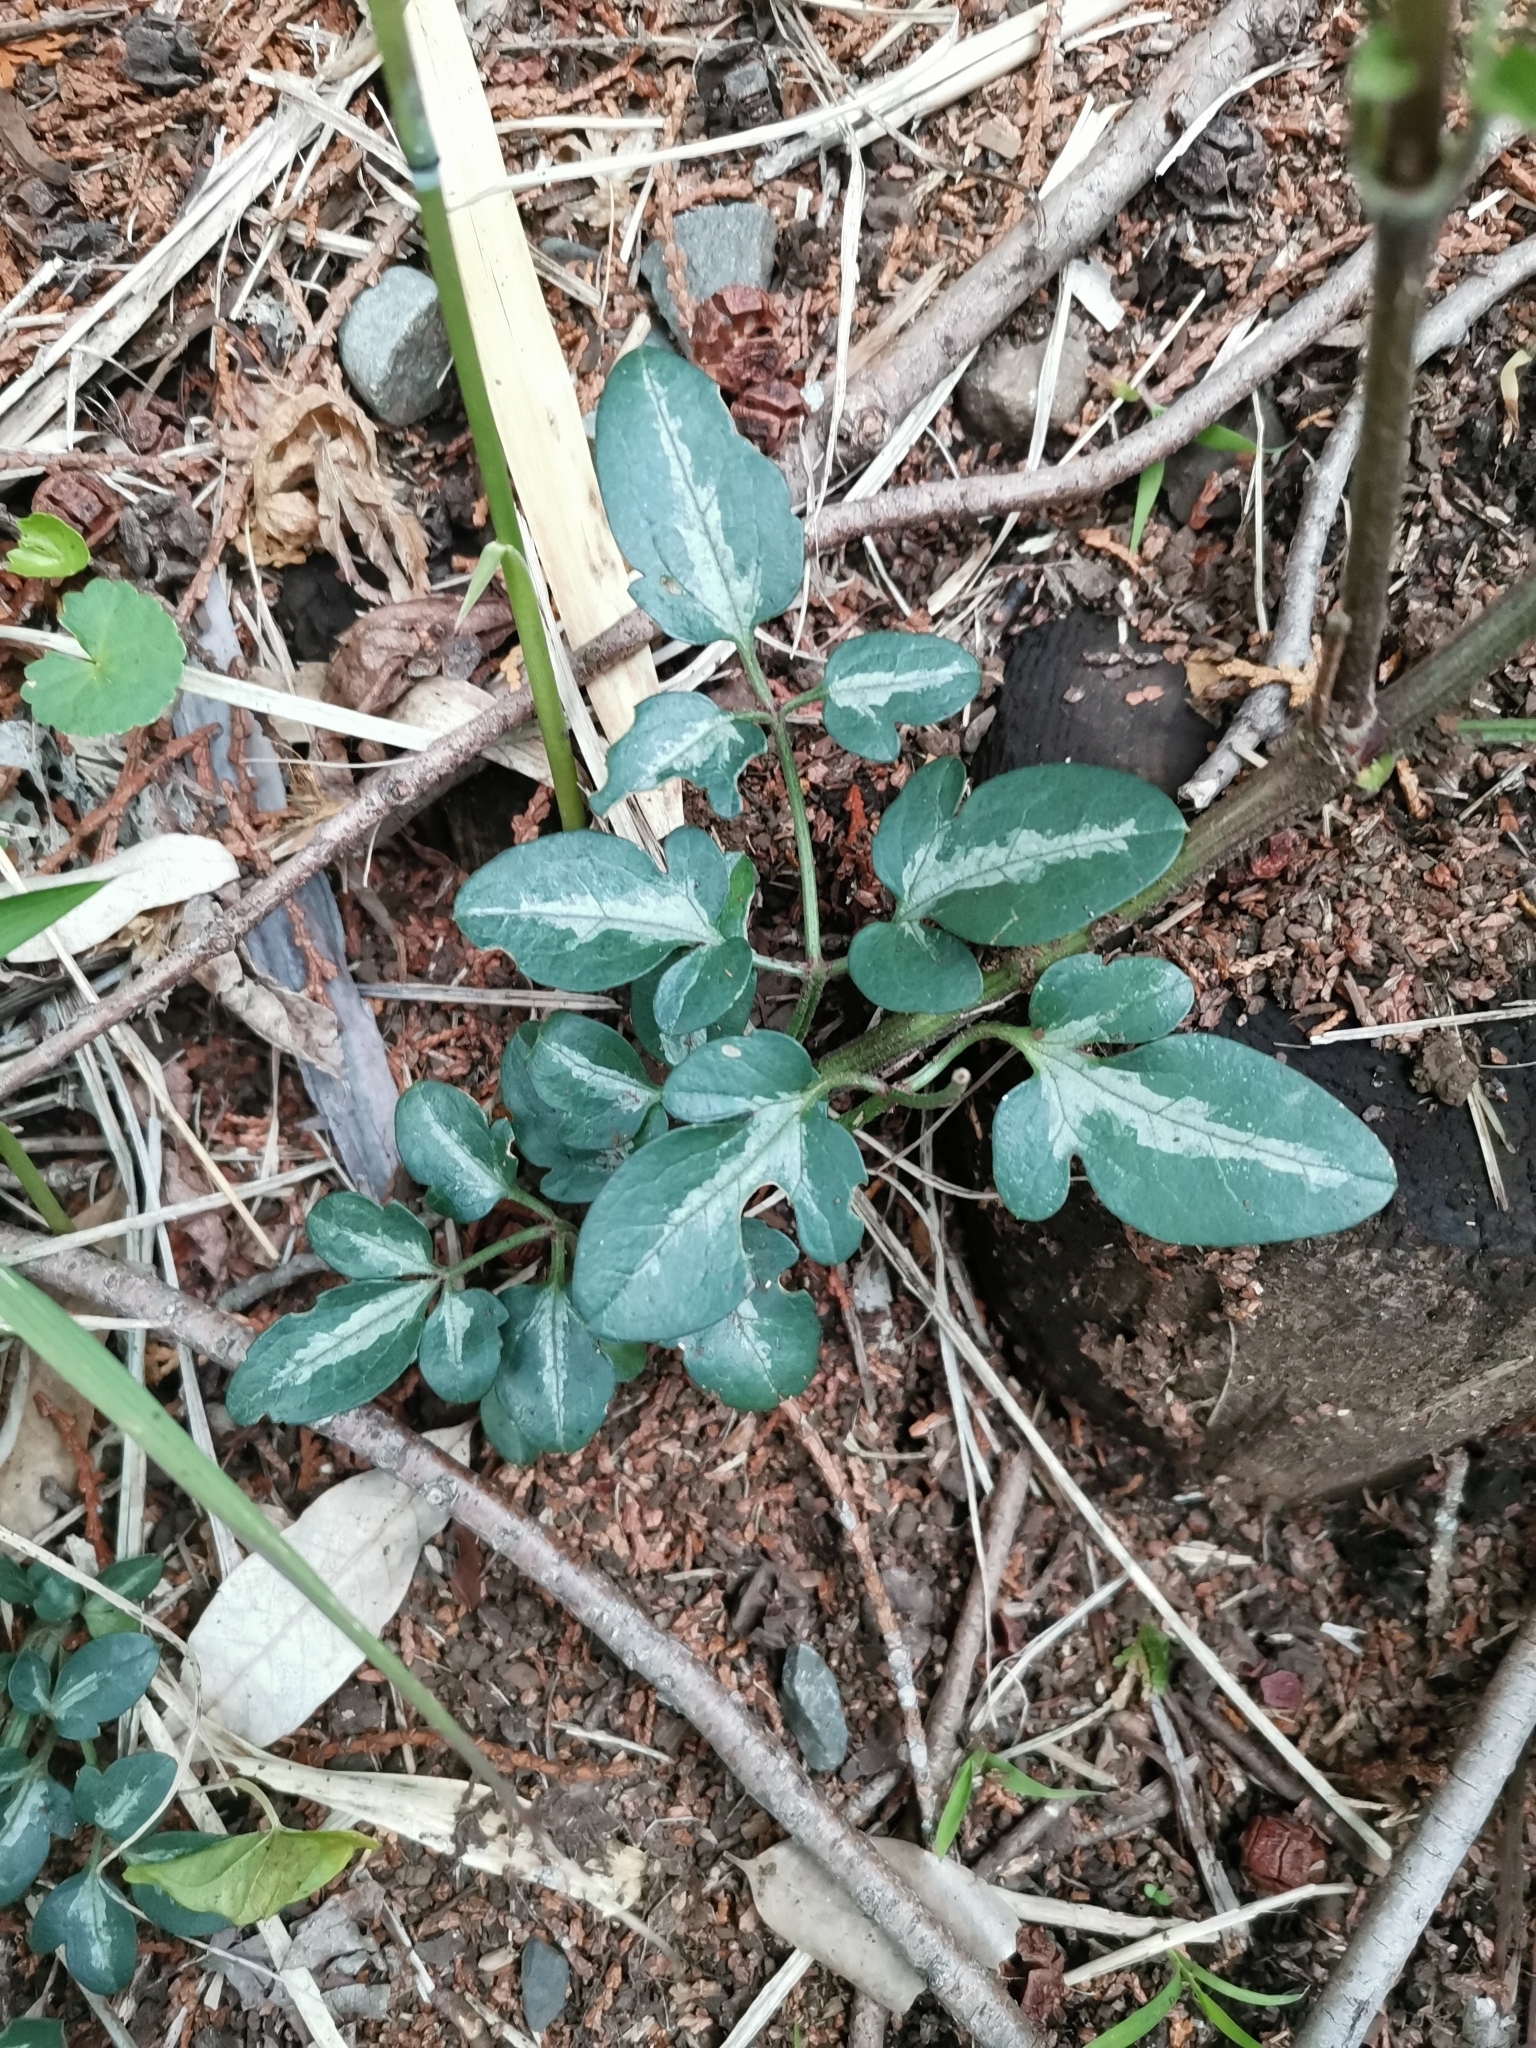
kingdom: Plantae
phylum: Tracheophyta
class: Magnoliopsida
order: Ranunculales
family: Ranunculaceae
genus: Clematis
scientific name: Clematis terniflora
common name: Sweet autumn clematis
